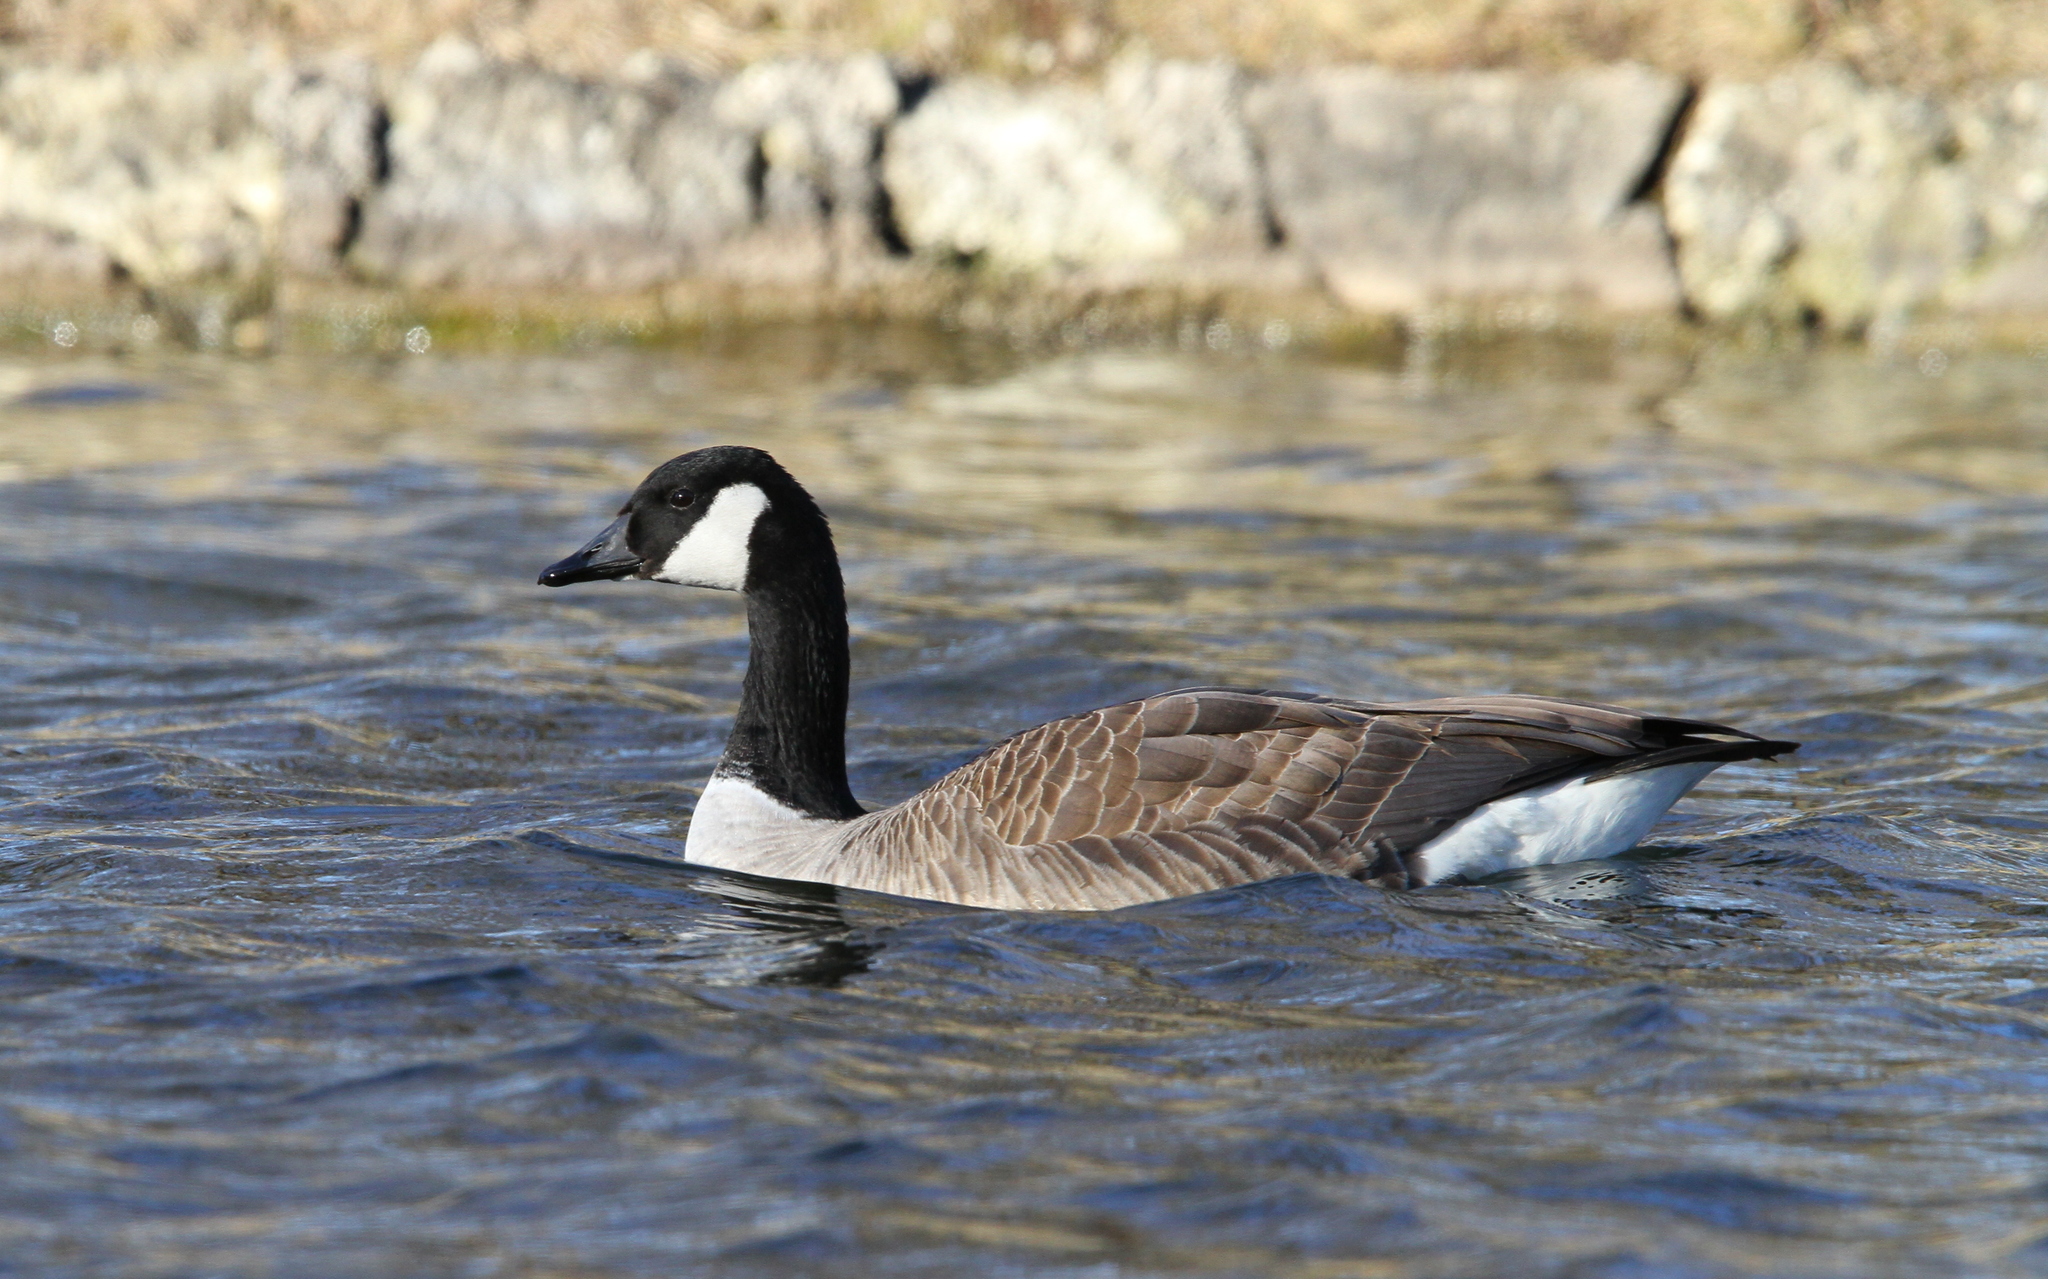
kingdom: Animalia
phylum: Chordata
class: Aves
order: Anseriformes
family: Anatidae
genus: Branta
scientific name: Branta canadensis
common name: Canada goose
